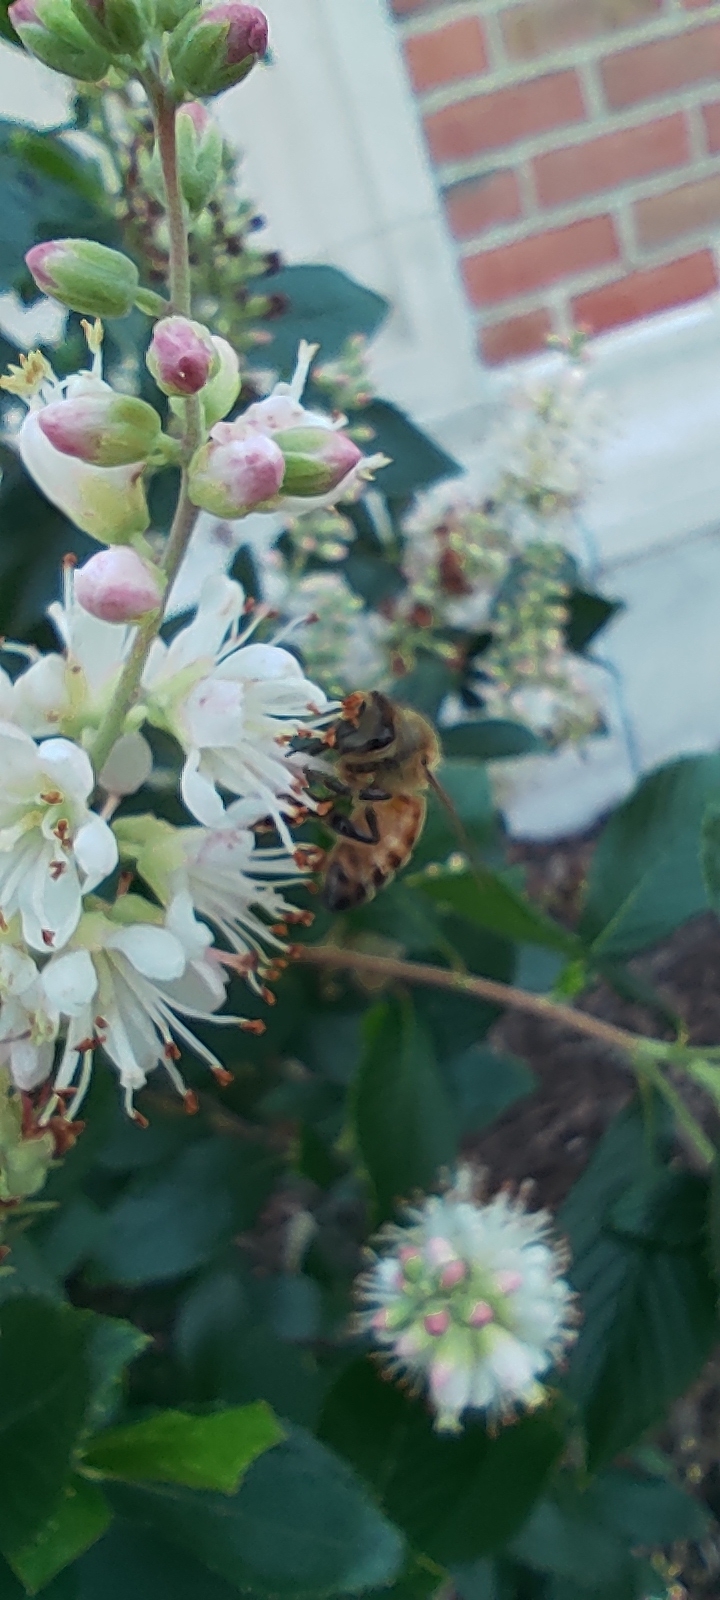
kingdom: Animalia
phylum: Arthropoda
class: Insecta
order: Hymenoptera
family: Apidae
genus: Apis
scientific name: Apis mellifera
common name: Honey bee
